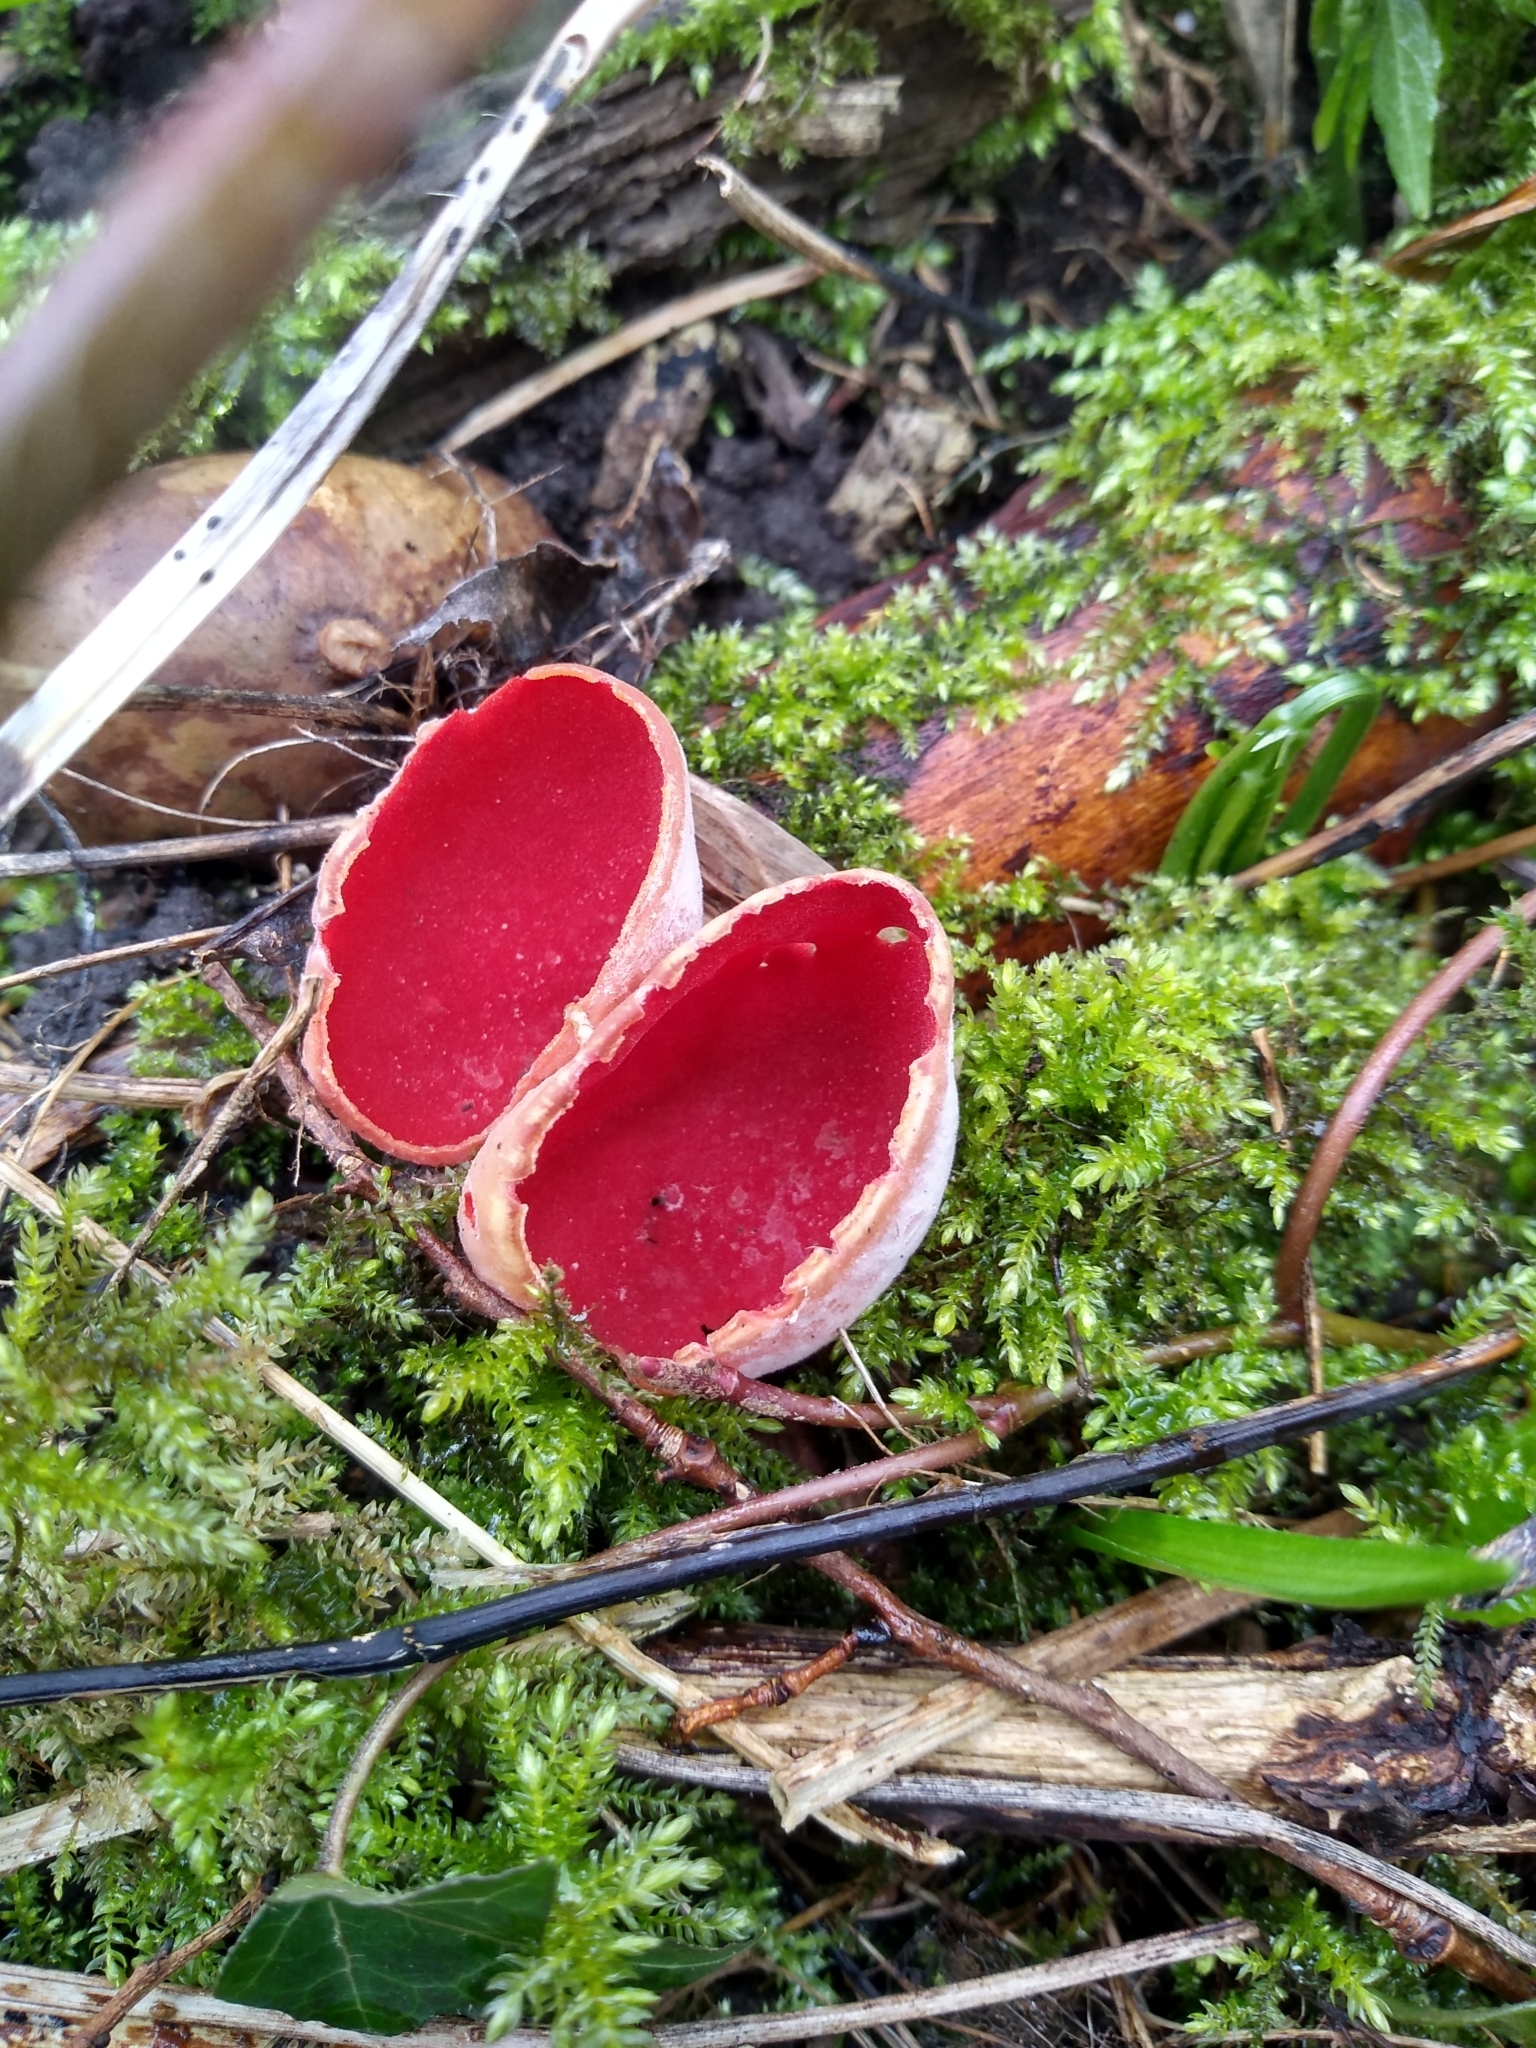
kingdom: Fungi
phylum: Ascomycota
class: Pezizomycetes
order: Pezizales
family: Sarcoscyphaceae
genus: Sarcoscypha
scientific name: Sarcoscypha
